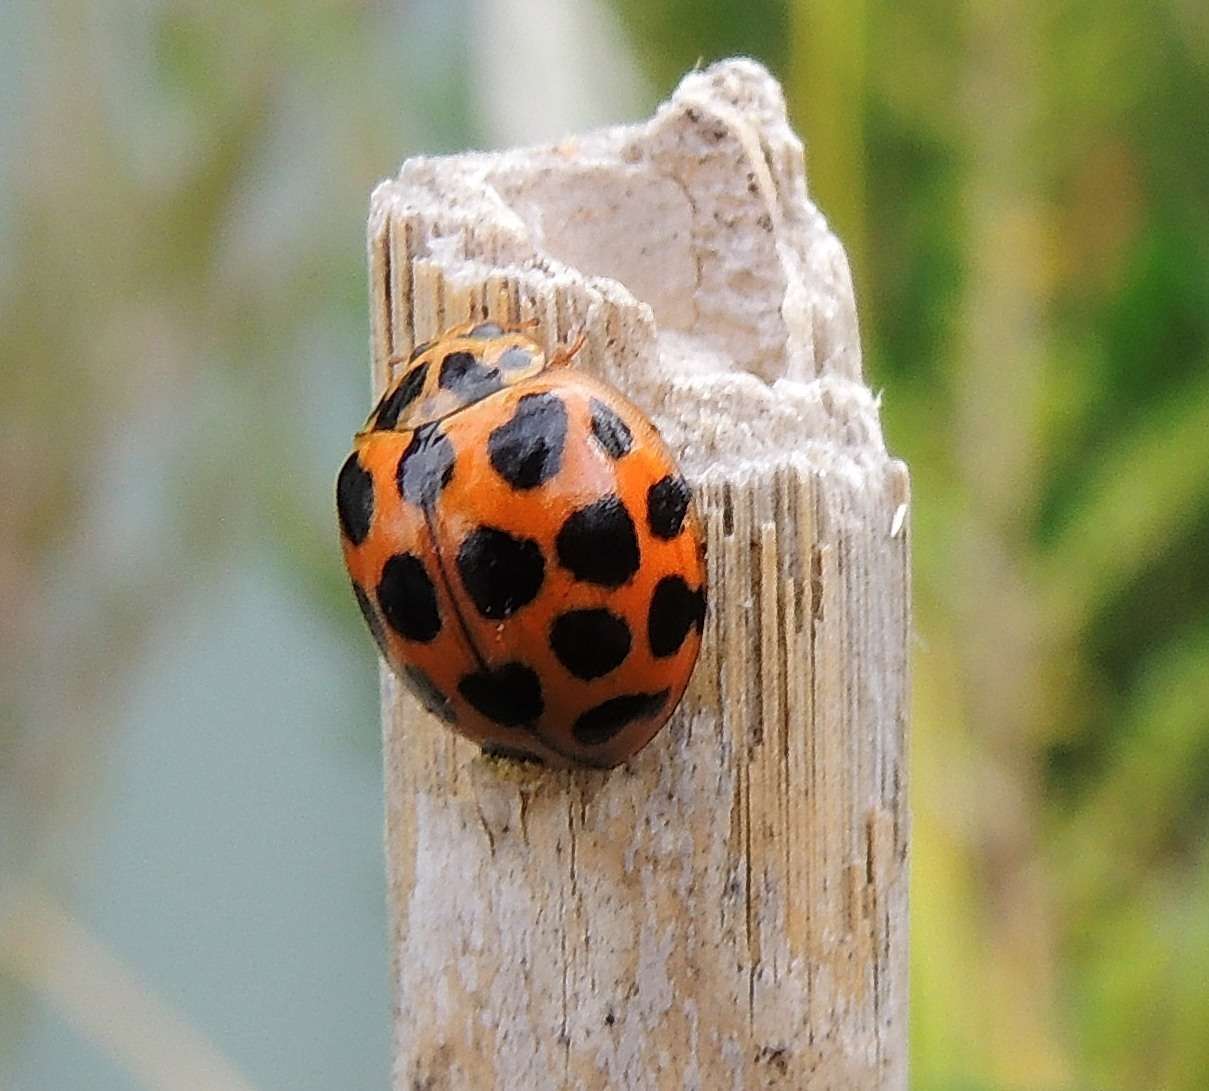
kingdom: Animalia
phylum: Arthropoda
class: Insecta
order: Coleoptera
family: Coccinellidae
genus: Harmonia
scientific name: Harmonia conformis
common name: Common spotted ladybird beetle
